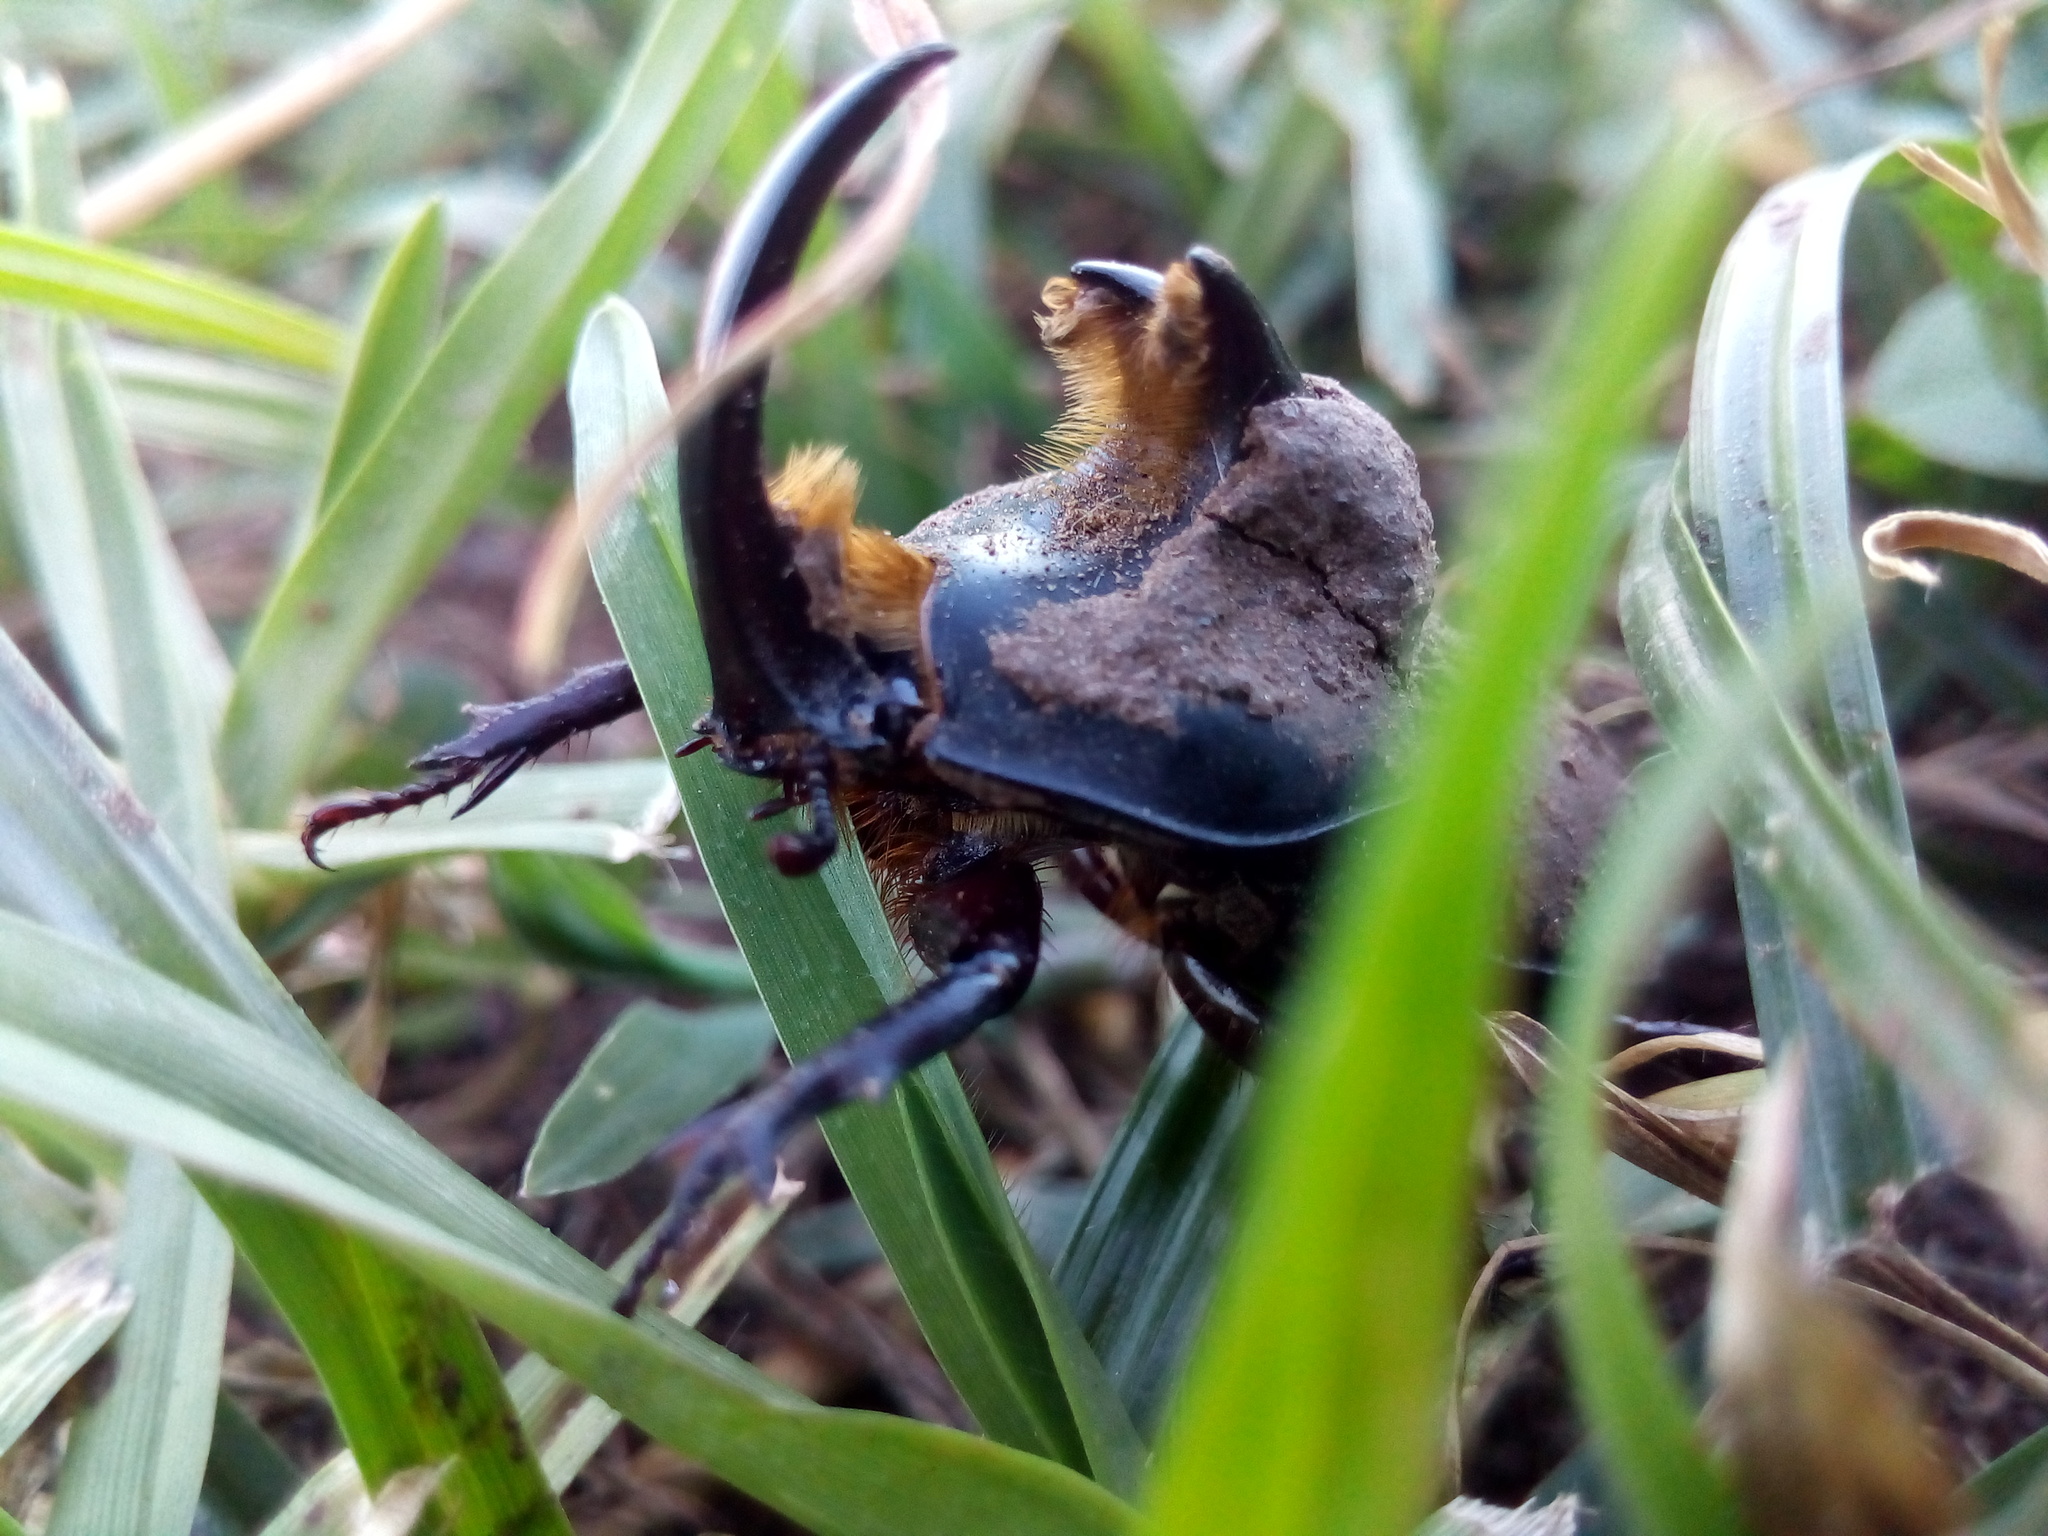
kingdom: Animalia
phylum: Arthropoda
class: Insecta
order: Coleoptera
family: Scarabaeidae
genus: Diloboderus
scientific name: Diloboderus abderus
